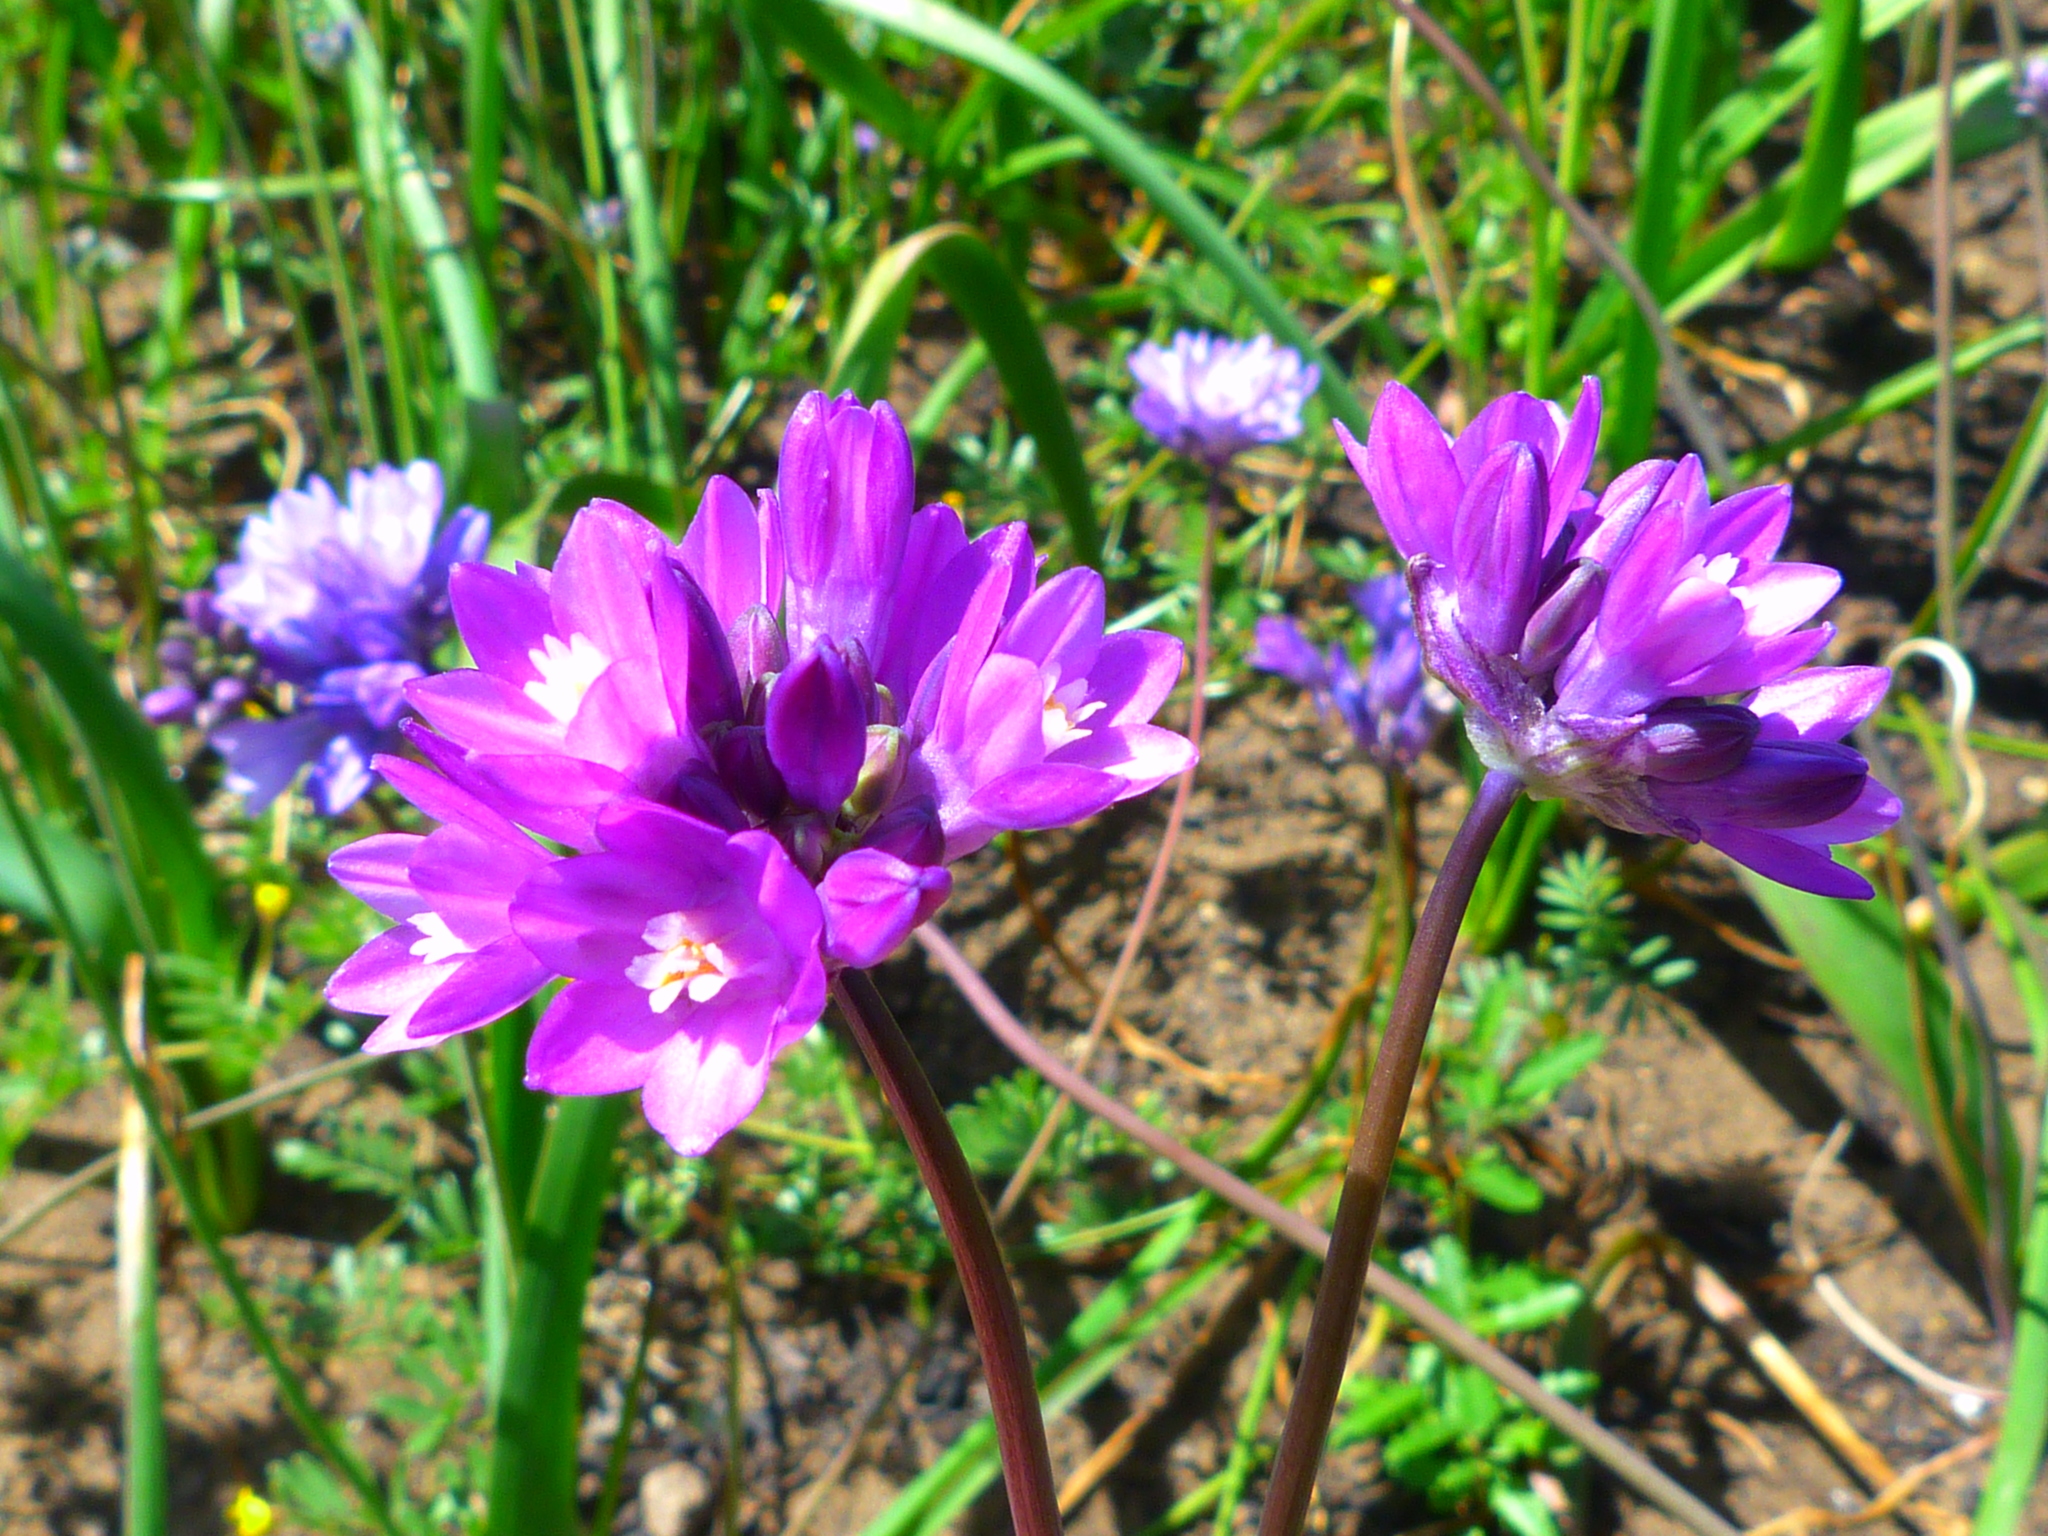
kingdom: Plantae
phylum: Tracheophyta
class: Liliopsida
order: Asparagales
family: Asparagaceae
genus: Dipterostemon
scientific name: Dipterostemon capitatus
